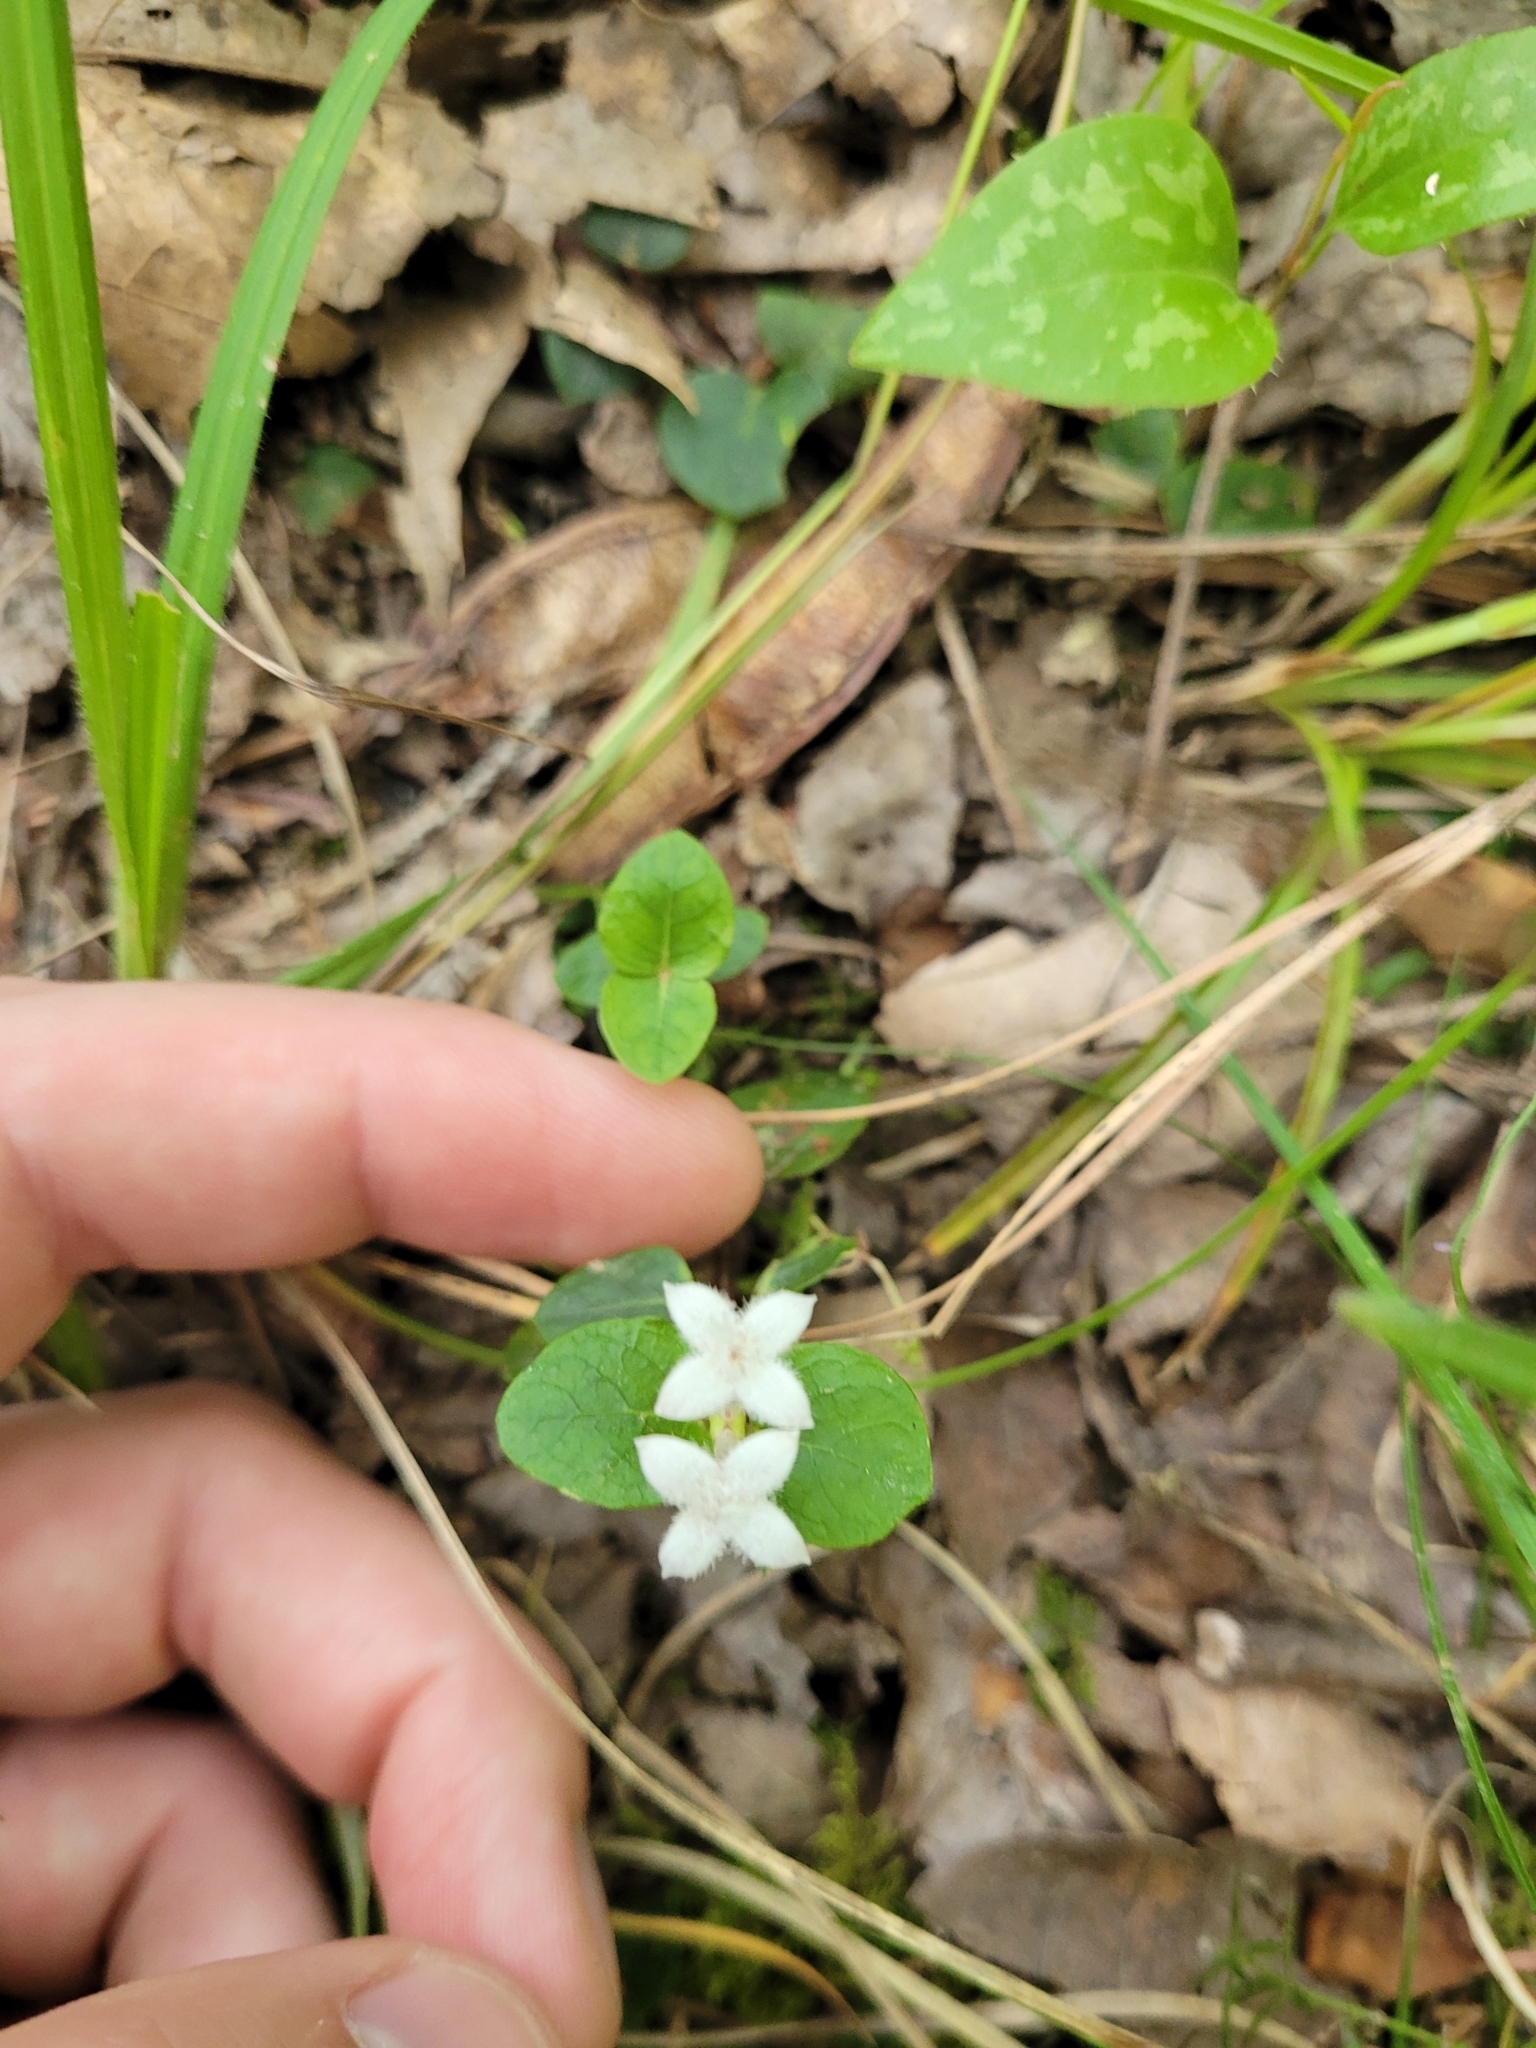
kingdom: Plantae
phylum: Tracheophyta
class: Magnoliopsida
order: Gentianales
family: Rubiaceae
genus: Mitchella
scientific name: Mitchella repens
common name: Partridge-berry
